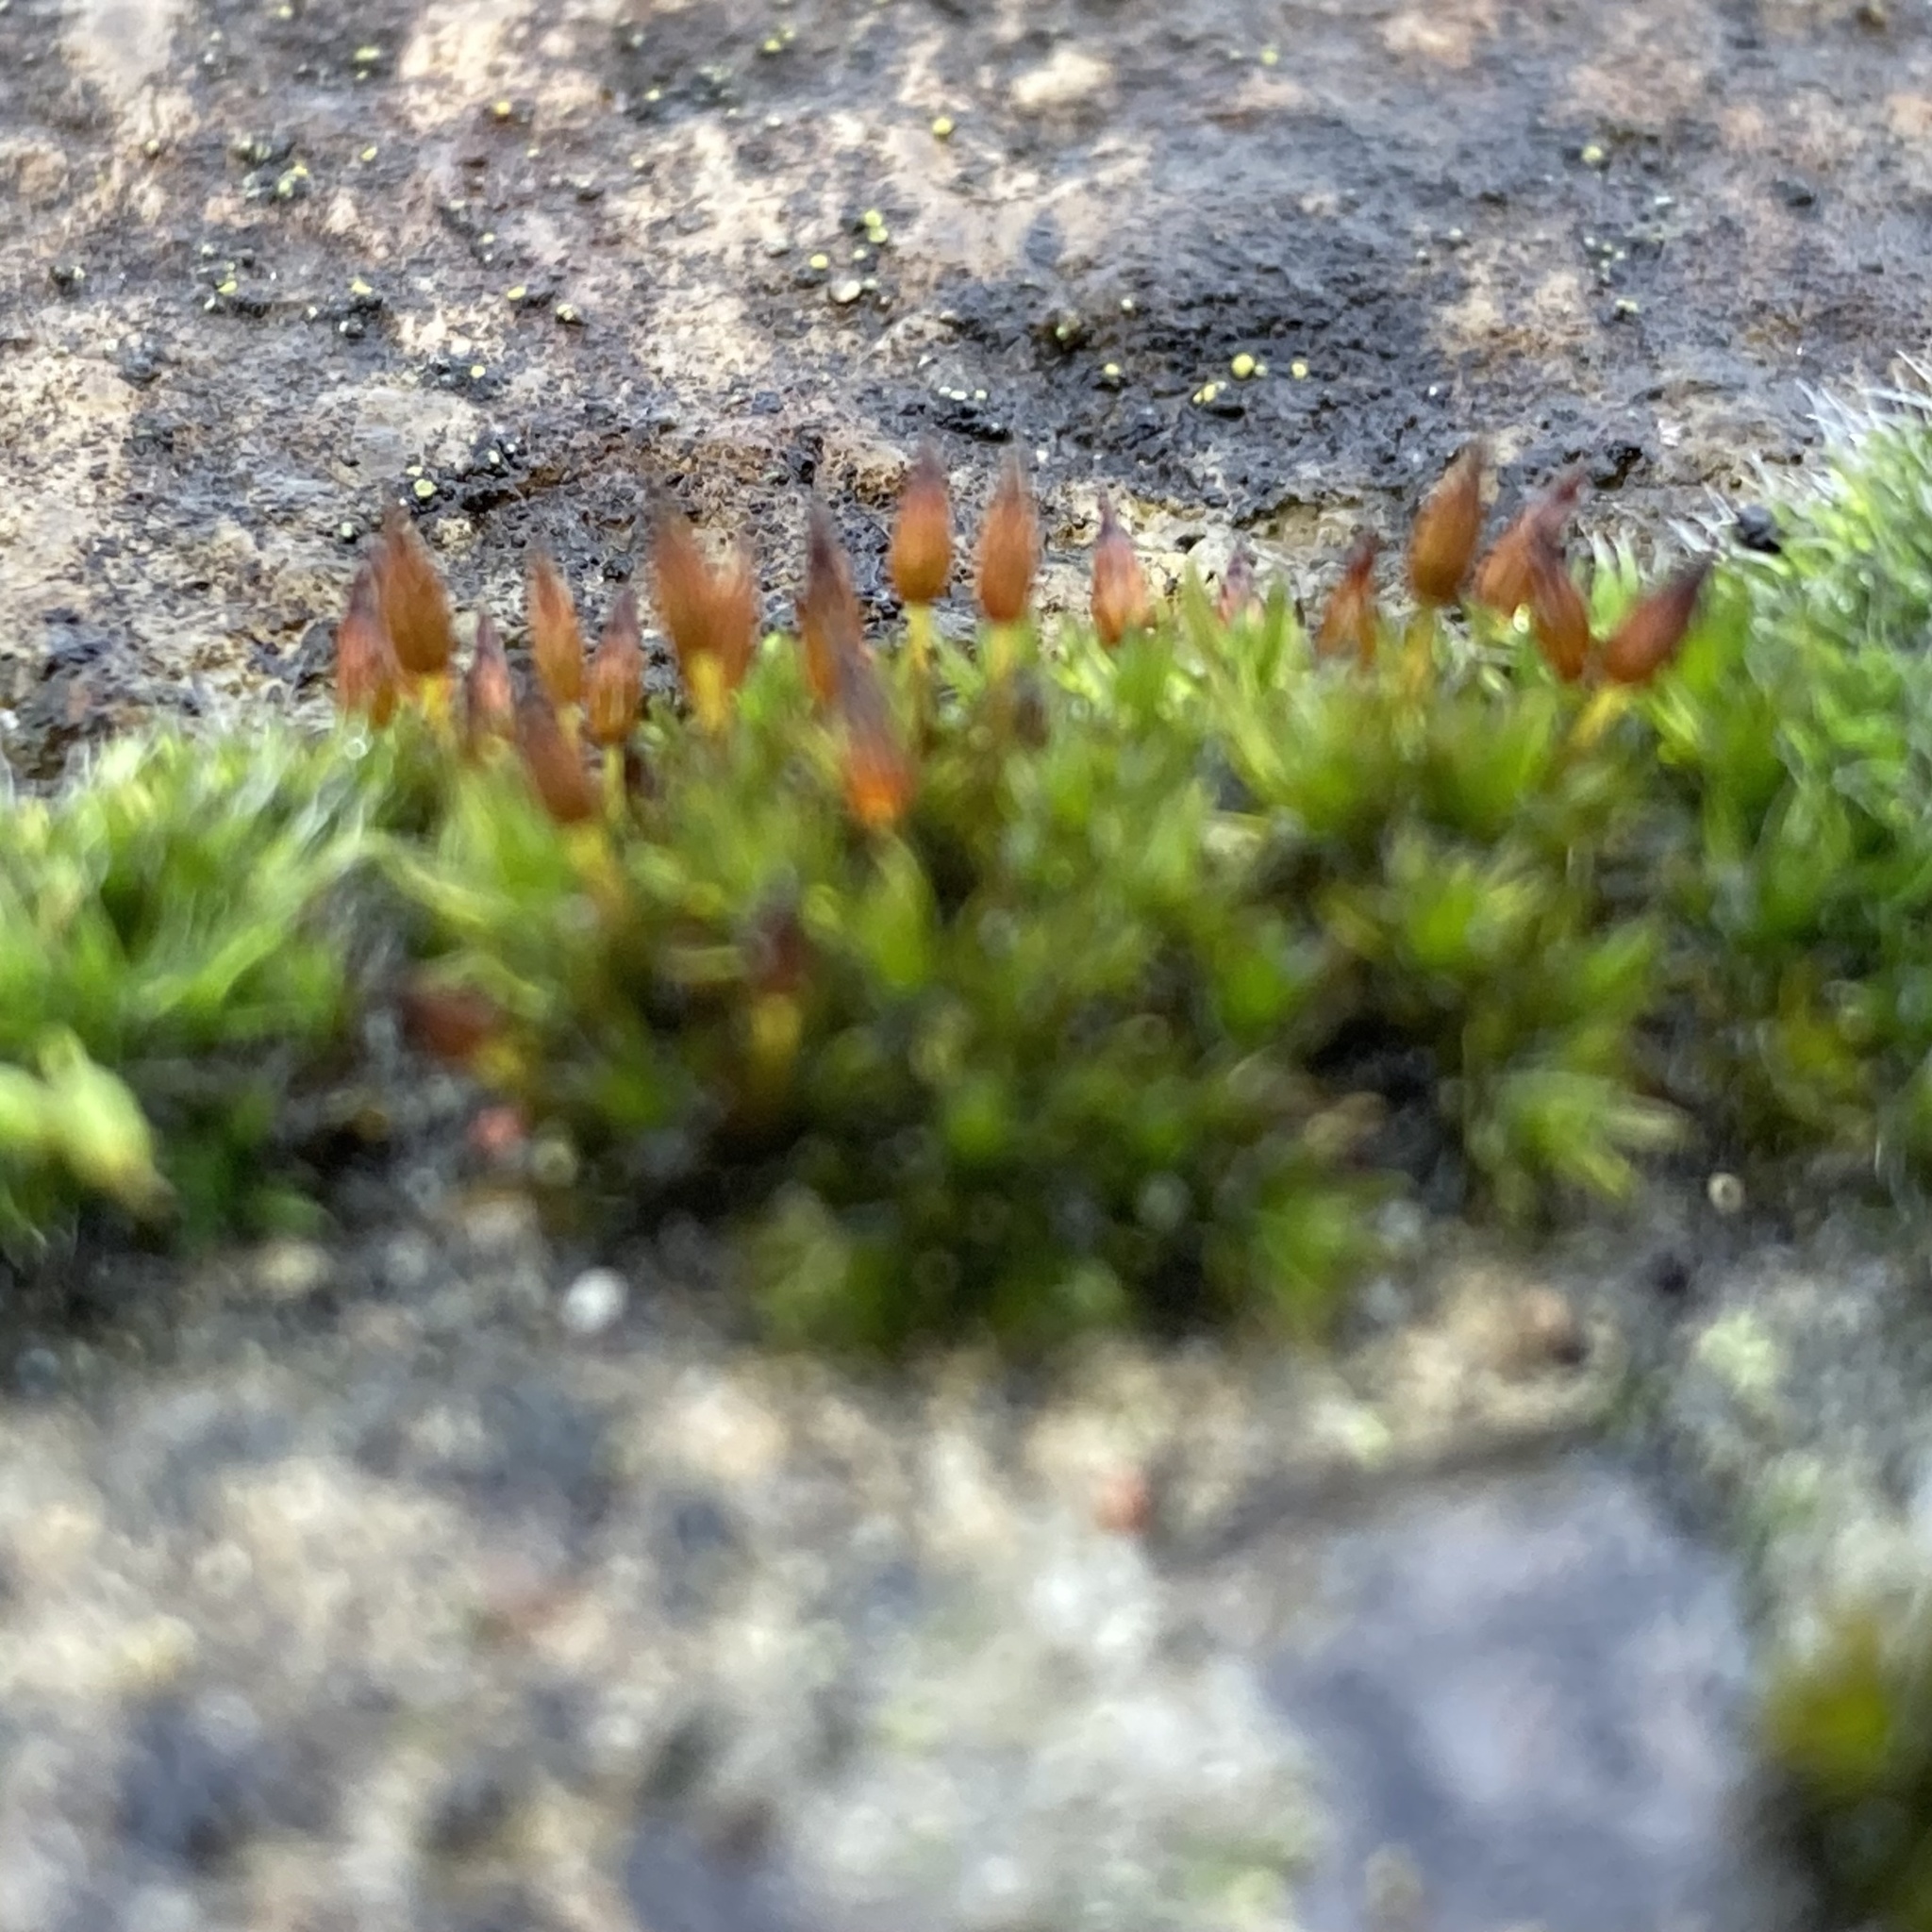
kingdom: Plantae
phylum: Bryophyta
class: Bryopsida
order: Orthotrichales
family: Orthotrichaceae
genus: Orthotrichum
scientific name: Orthotrichum anomalum
